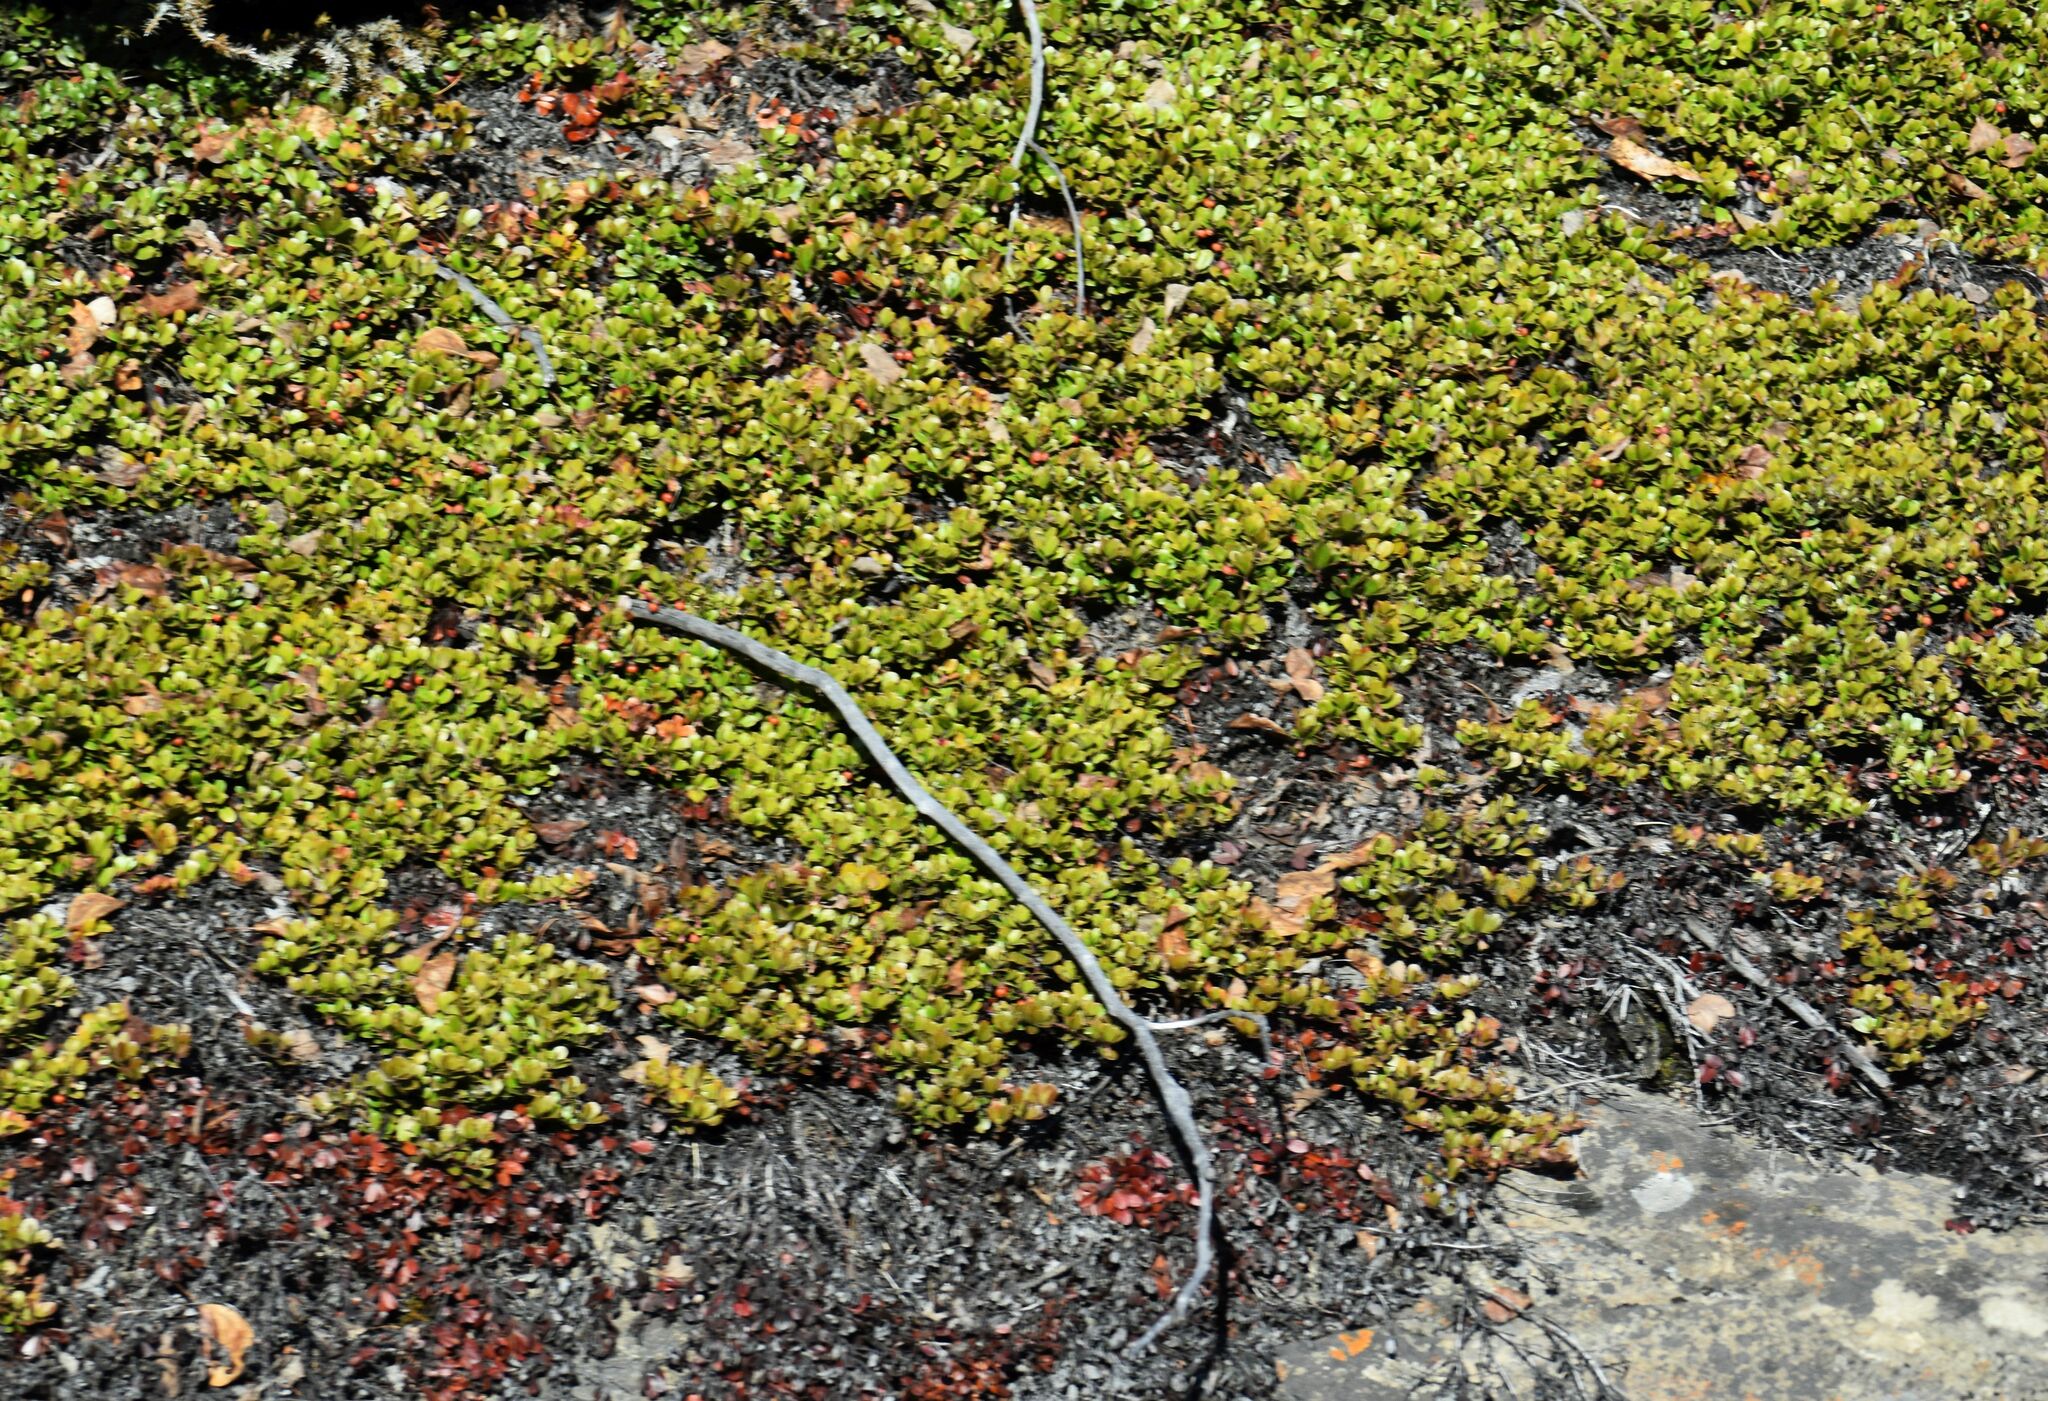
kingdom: Plantae
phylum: Tracheophyta
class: Magnoliopsida
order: Ericales
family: Ericaceae
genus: Arctostaphylos
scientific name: Arctostaphylos uva-ursi
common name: Bearberry
